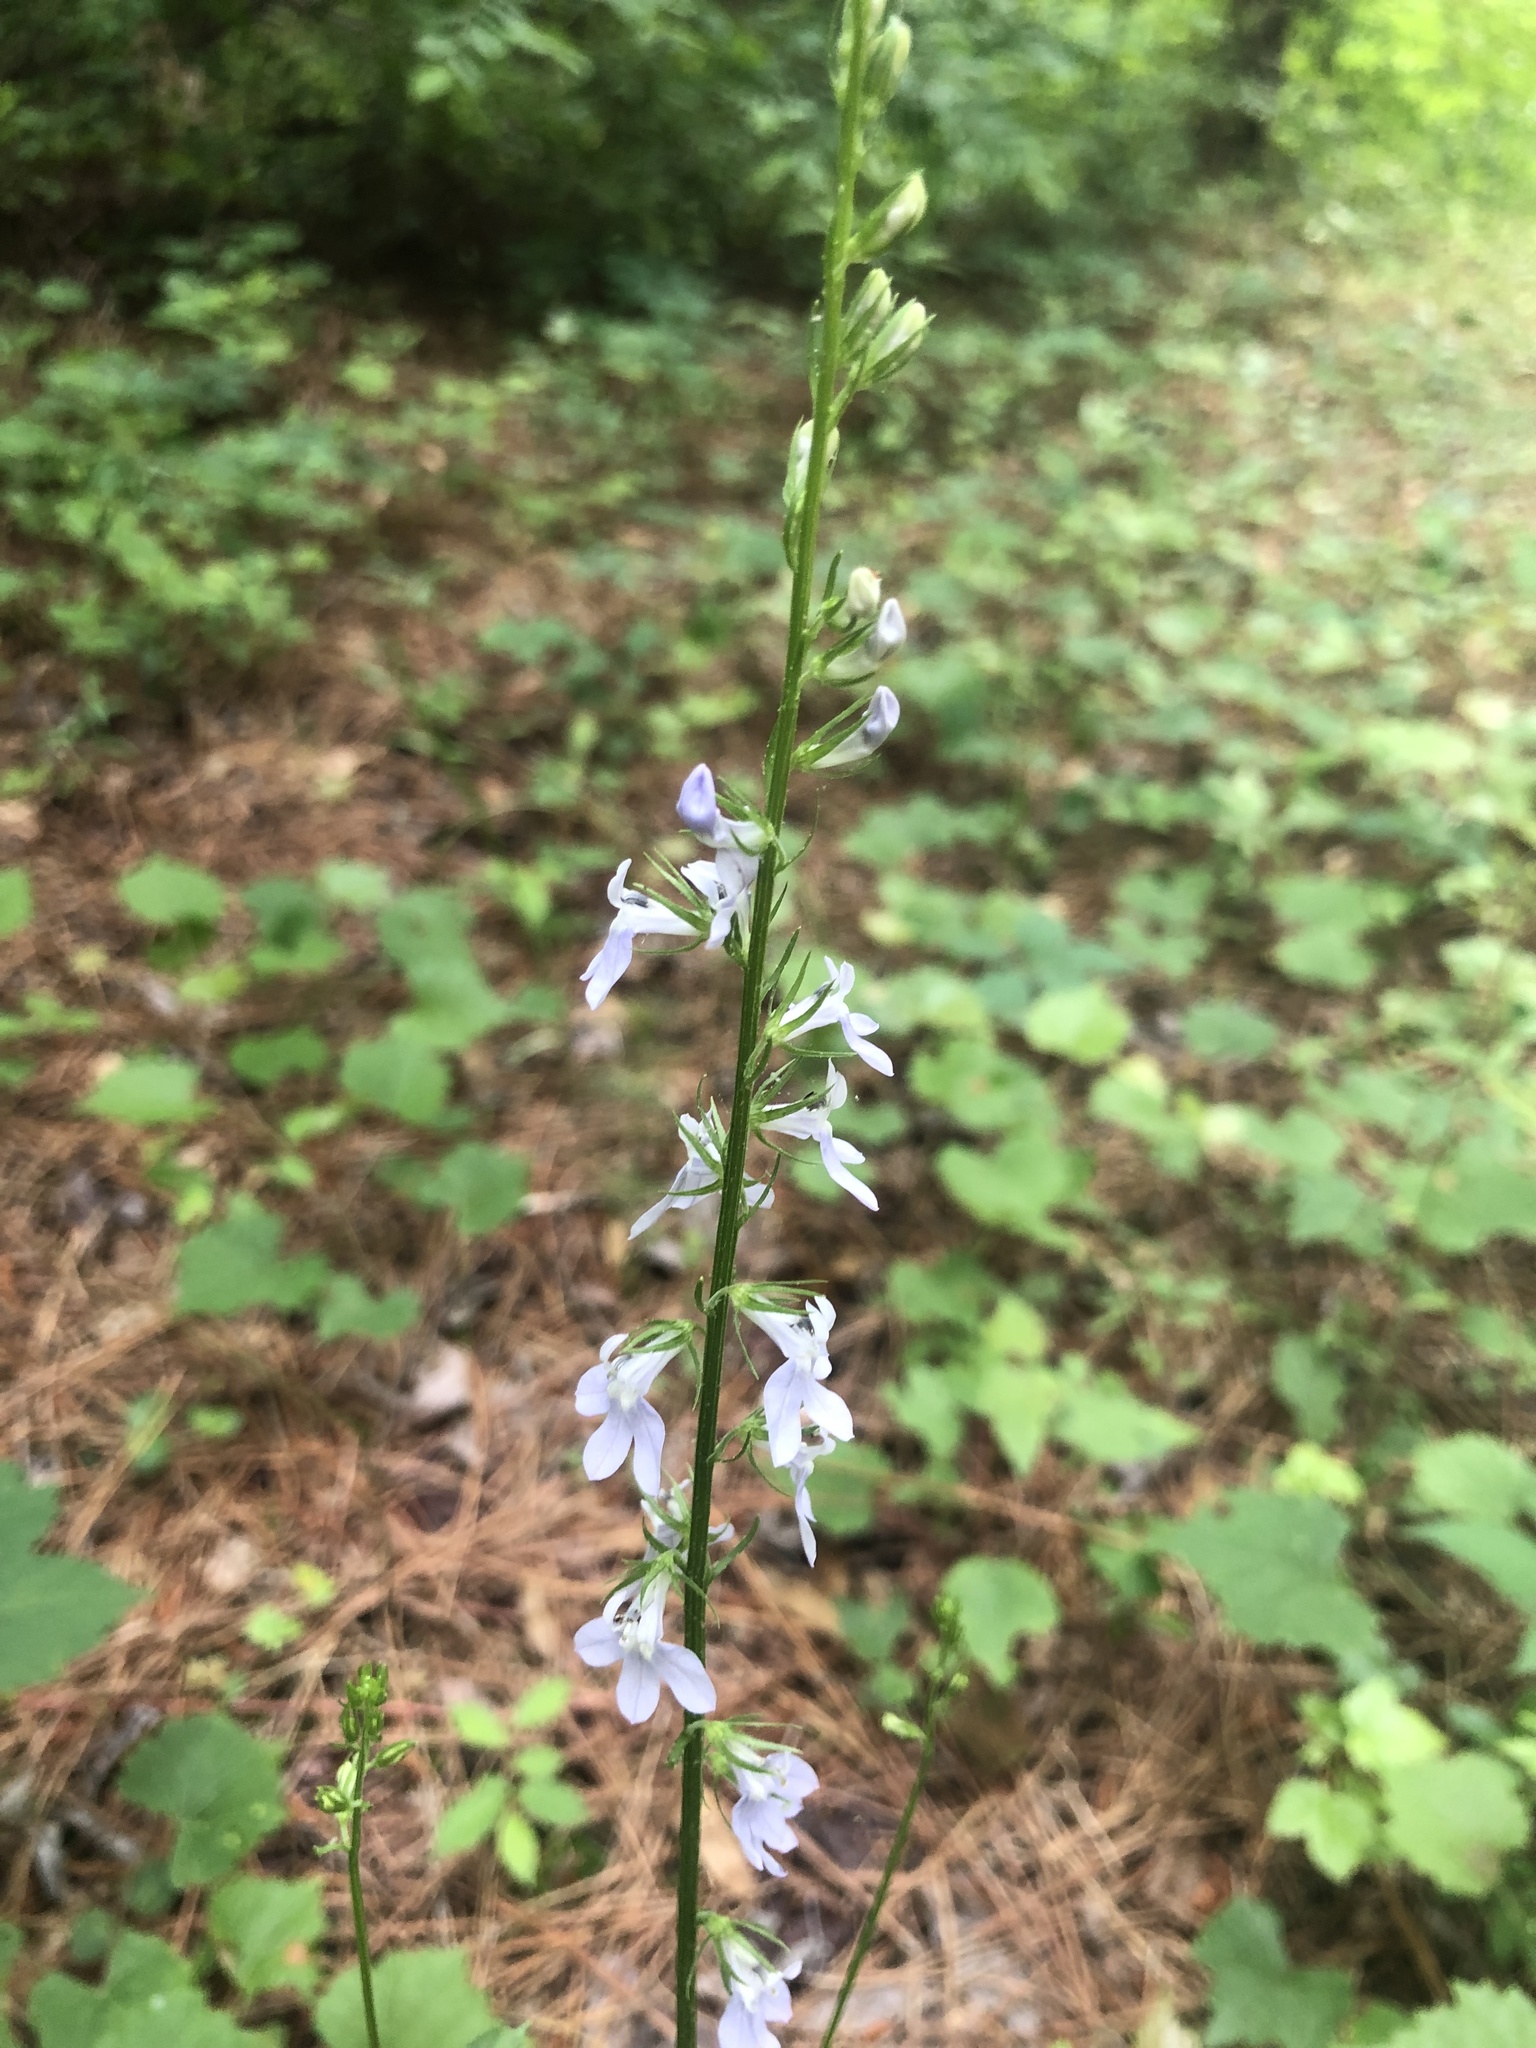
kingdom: Plantae
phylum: Tracheophyta
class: Magnoliopsida
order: Asterales
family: Campanulaceae
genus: Lobelia
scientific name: Lobelia appendiculata
